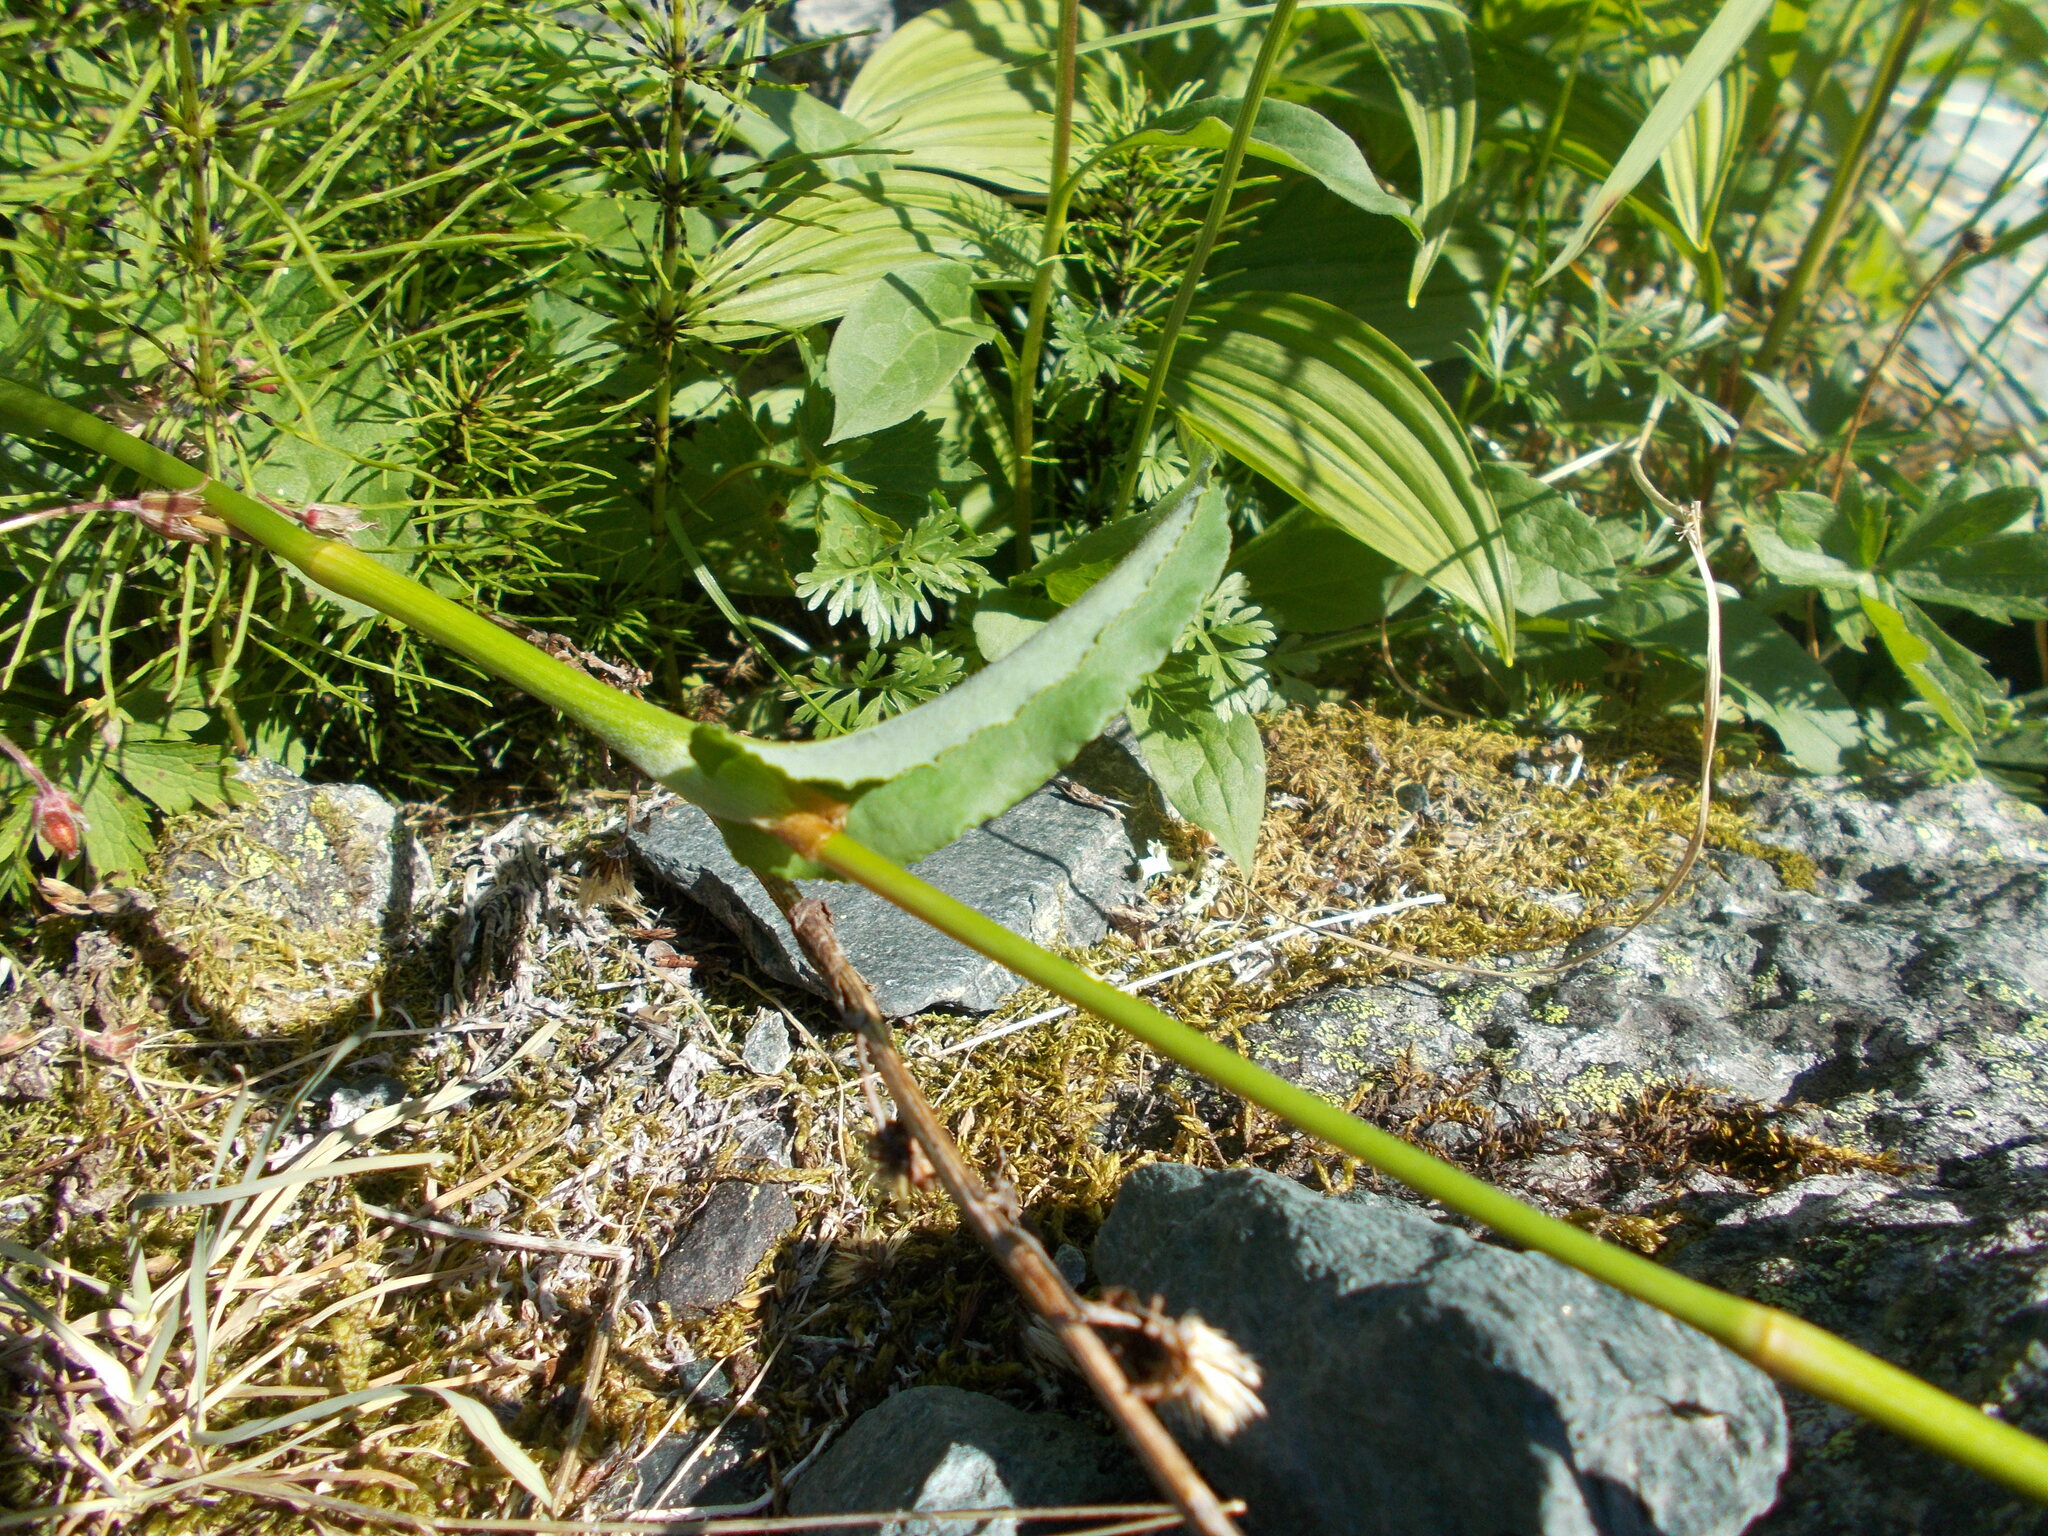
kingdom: Plantae
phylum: Tracheophyta
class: Magnoliopsida
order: Caryophyllales
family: Polygonaceae
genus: Bistorta
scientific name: Bistorta officinalis
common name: Common bistort
